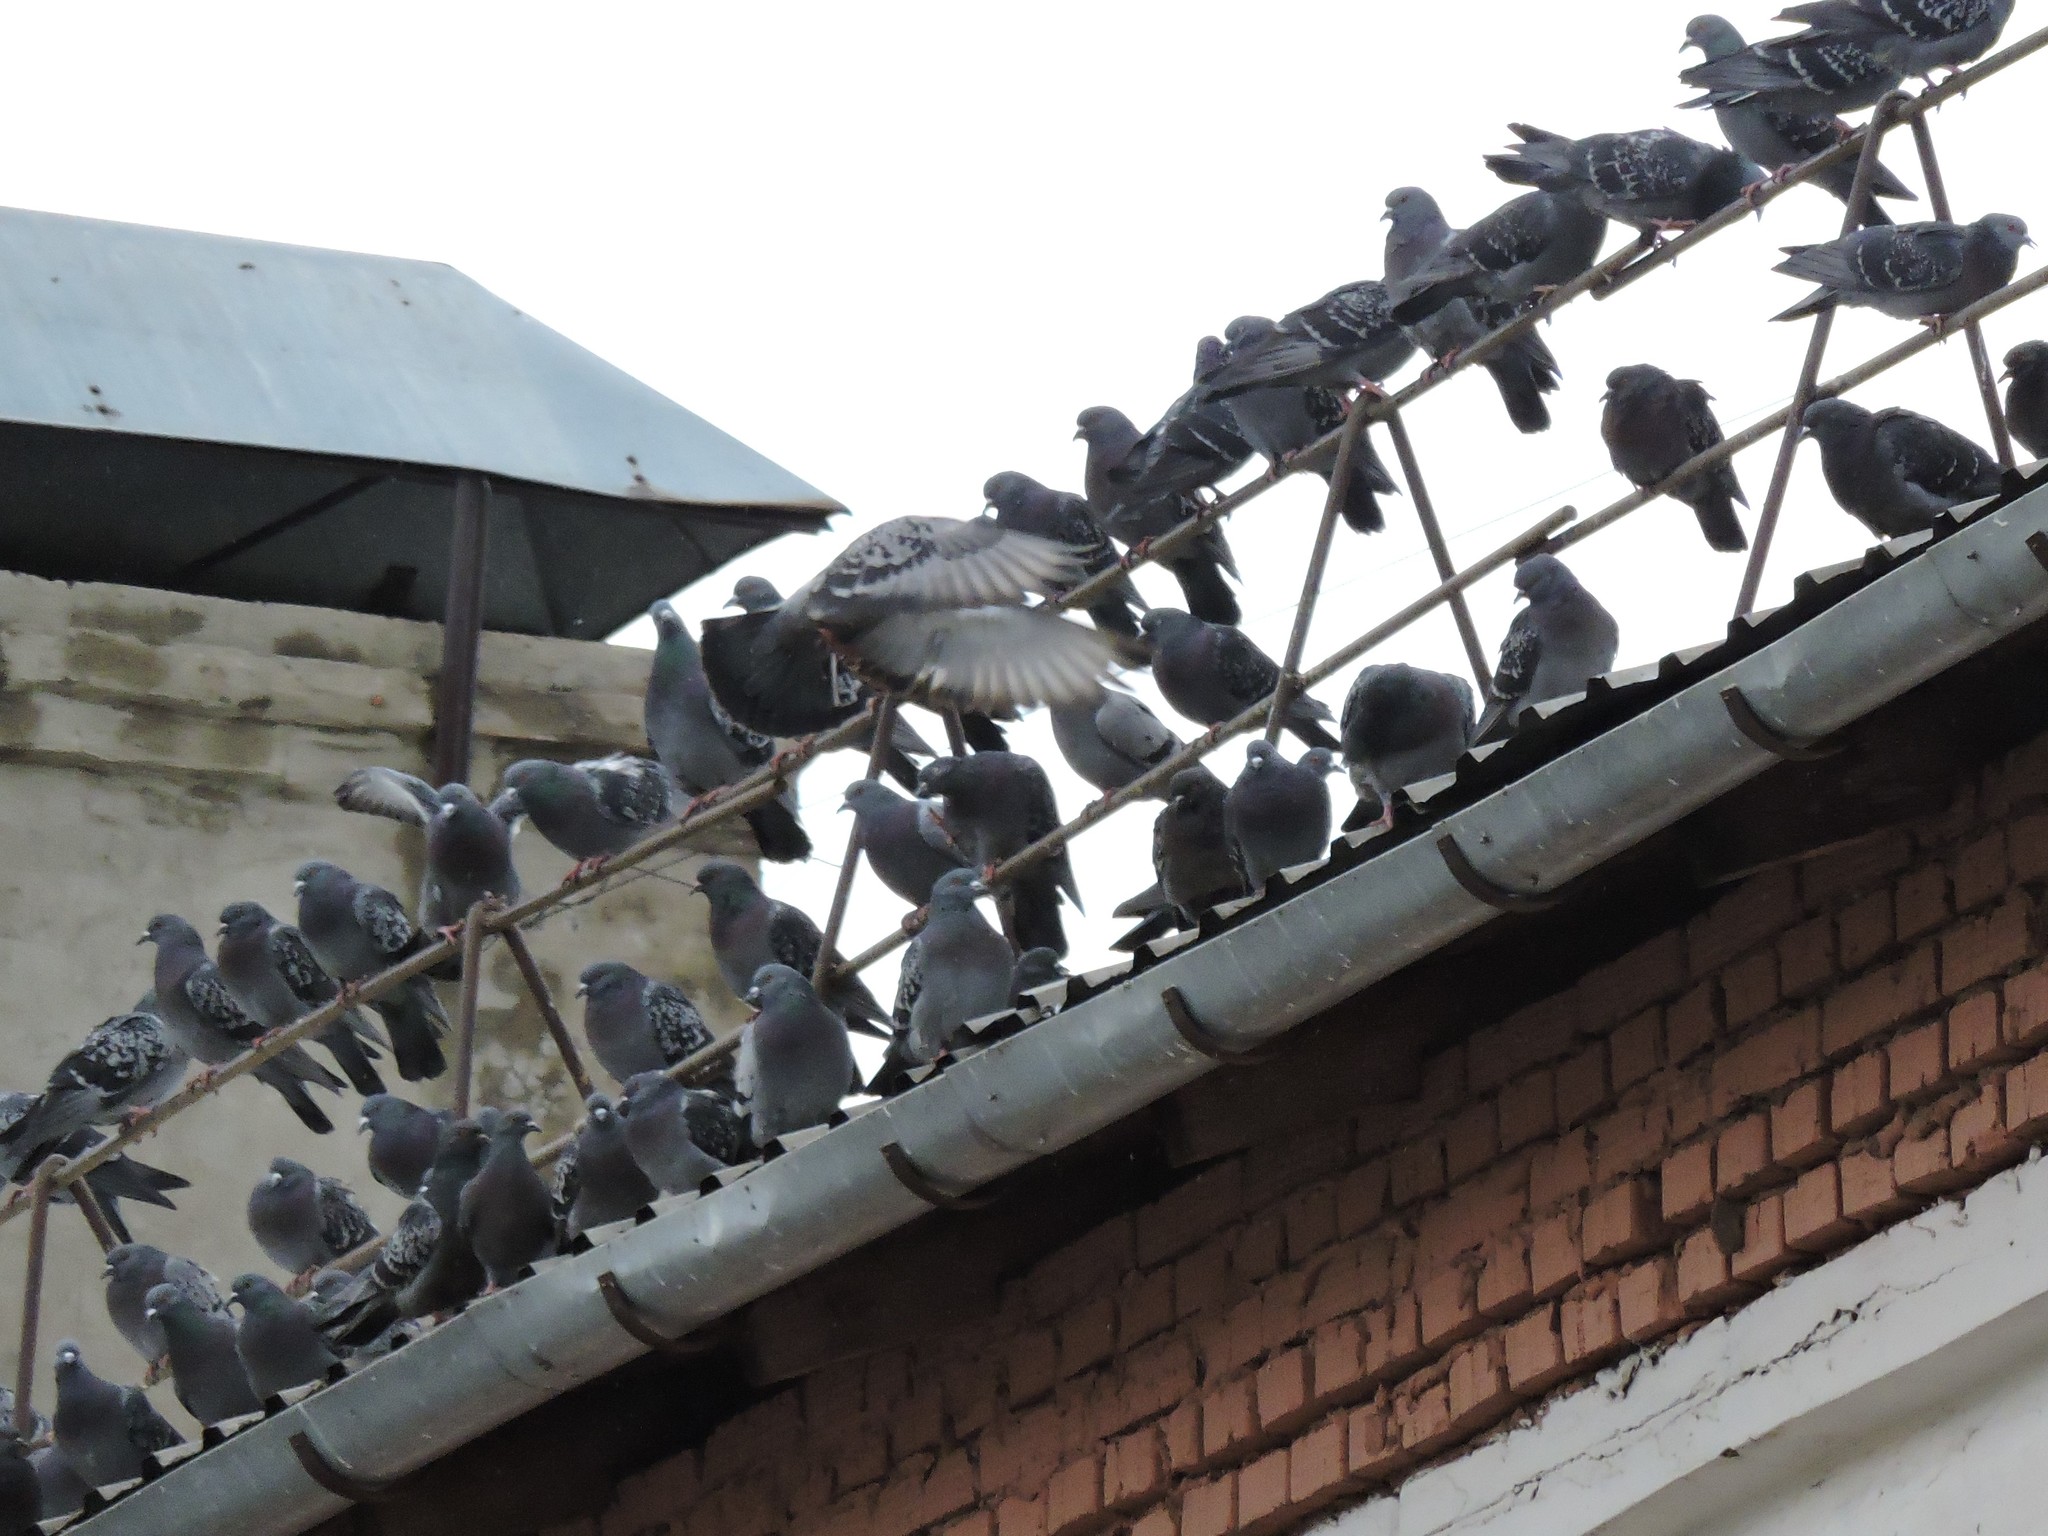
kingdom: Animalia
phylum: Chordata
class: Aves
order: Columbiformes
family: Columbidae
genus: Columba
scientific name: Columba livia
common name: Rock pigeon
